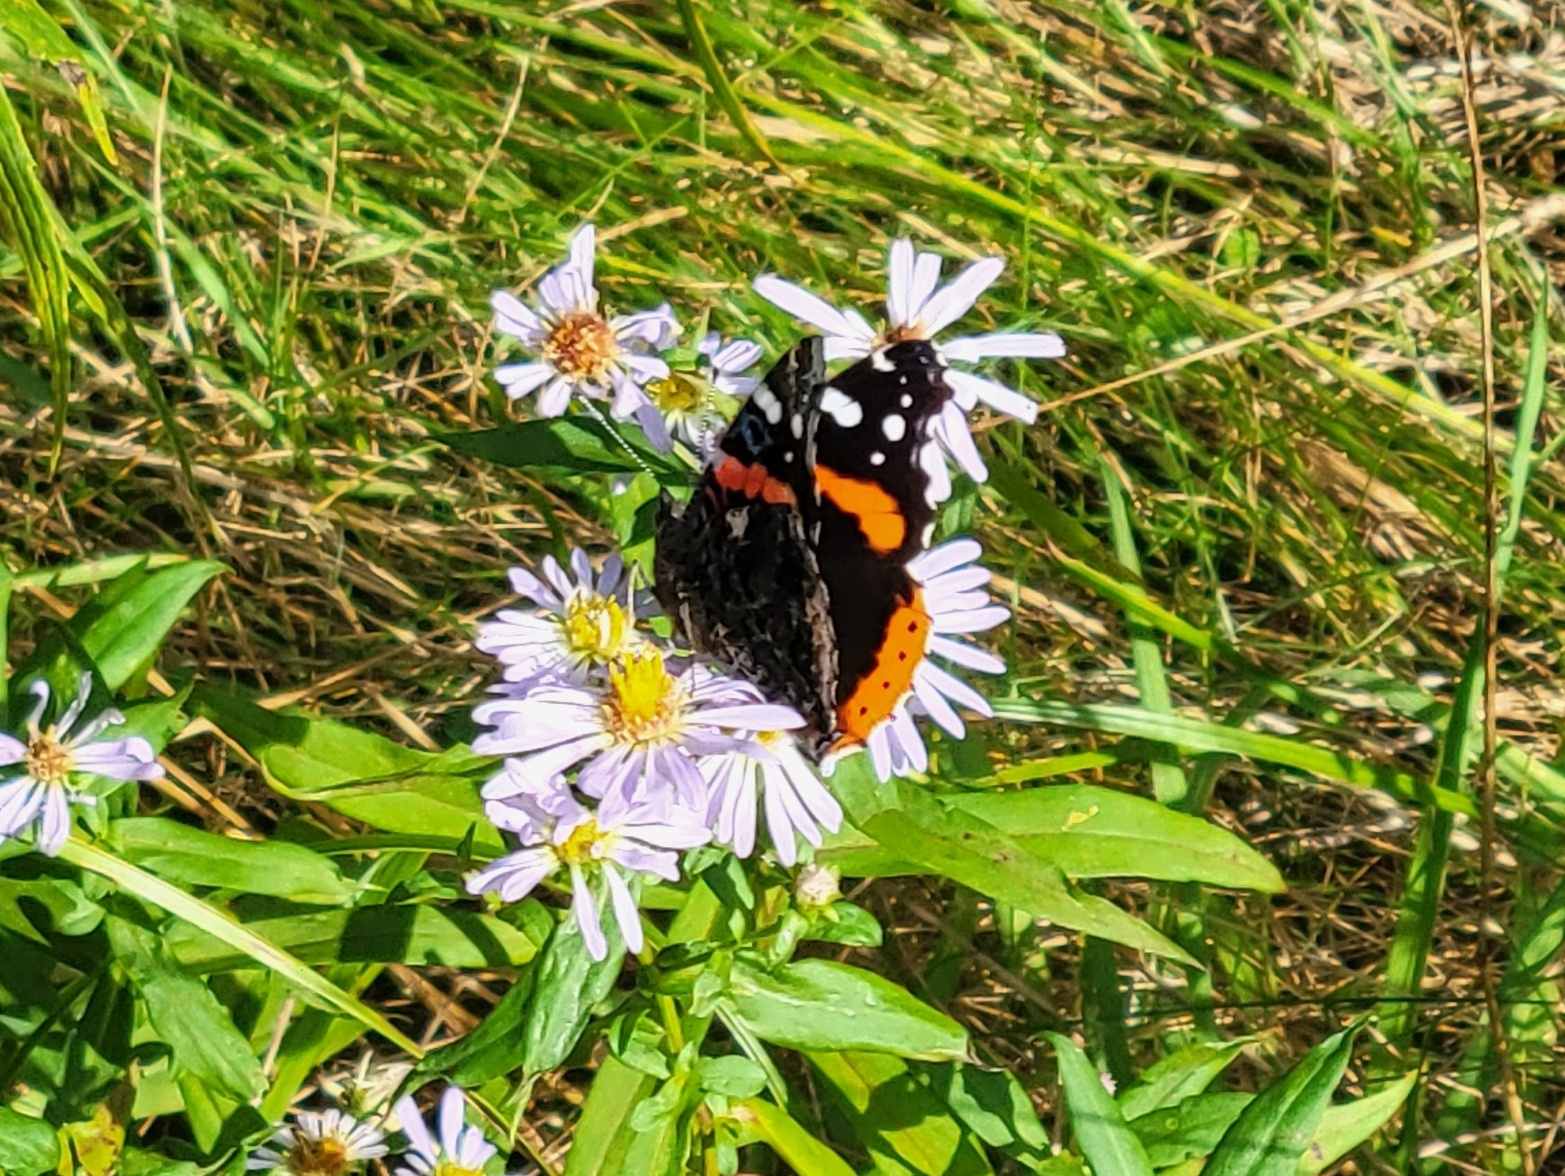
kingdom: Animalia
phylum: Arthropoda
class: Insecta
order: Lepidoptera
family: Nymphalidae
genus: Vanessa
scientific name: Vanessa atalanta
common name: Red admiral
